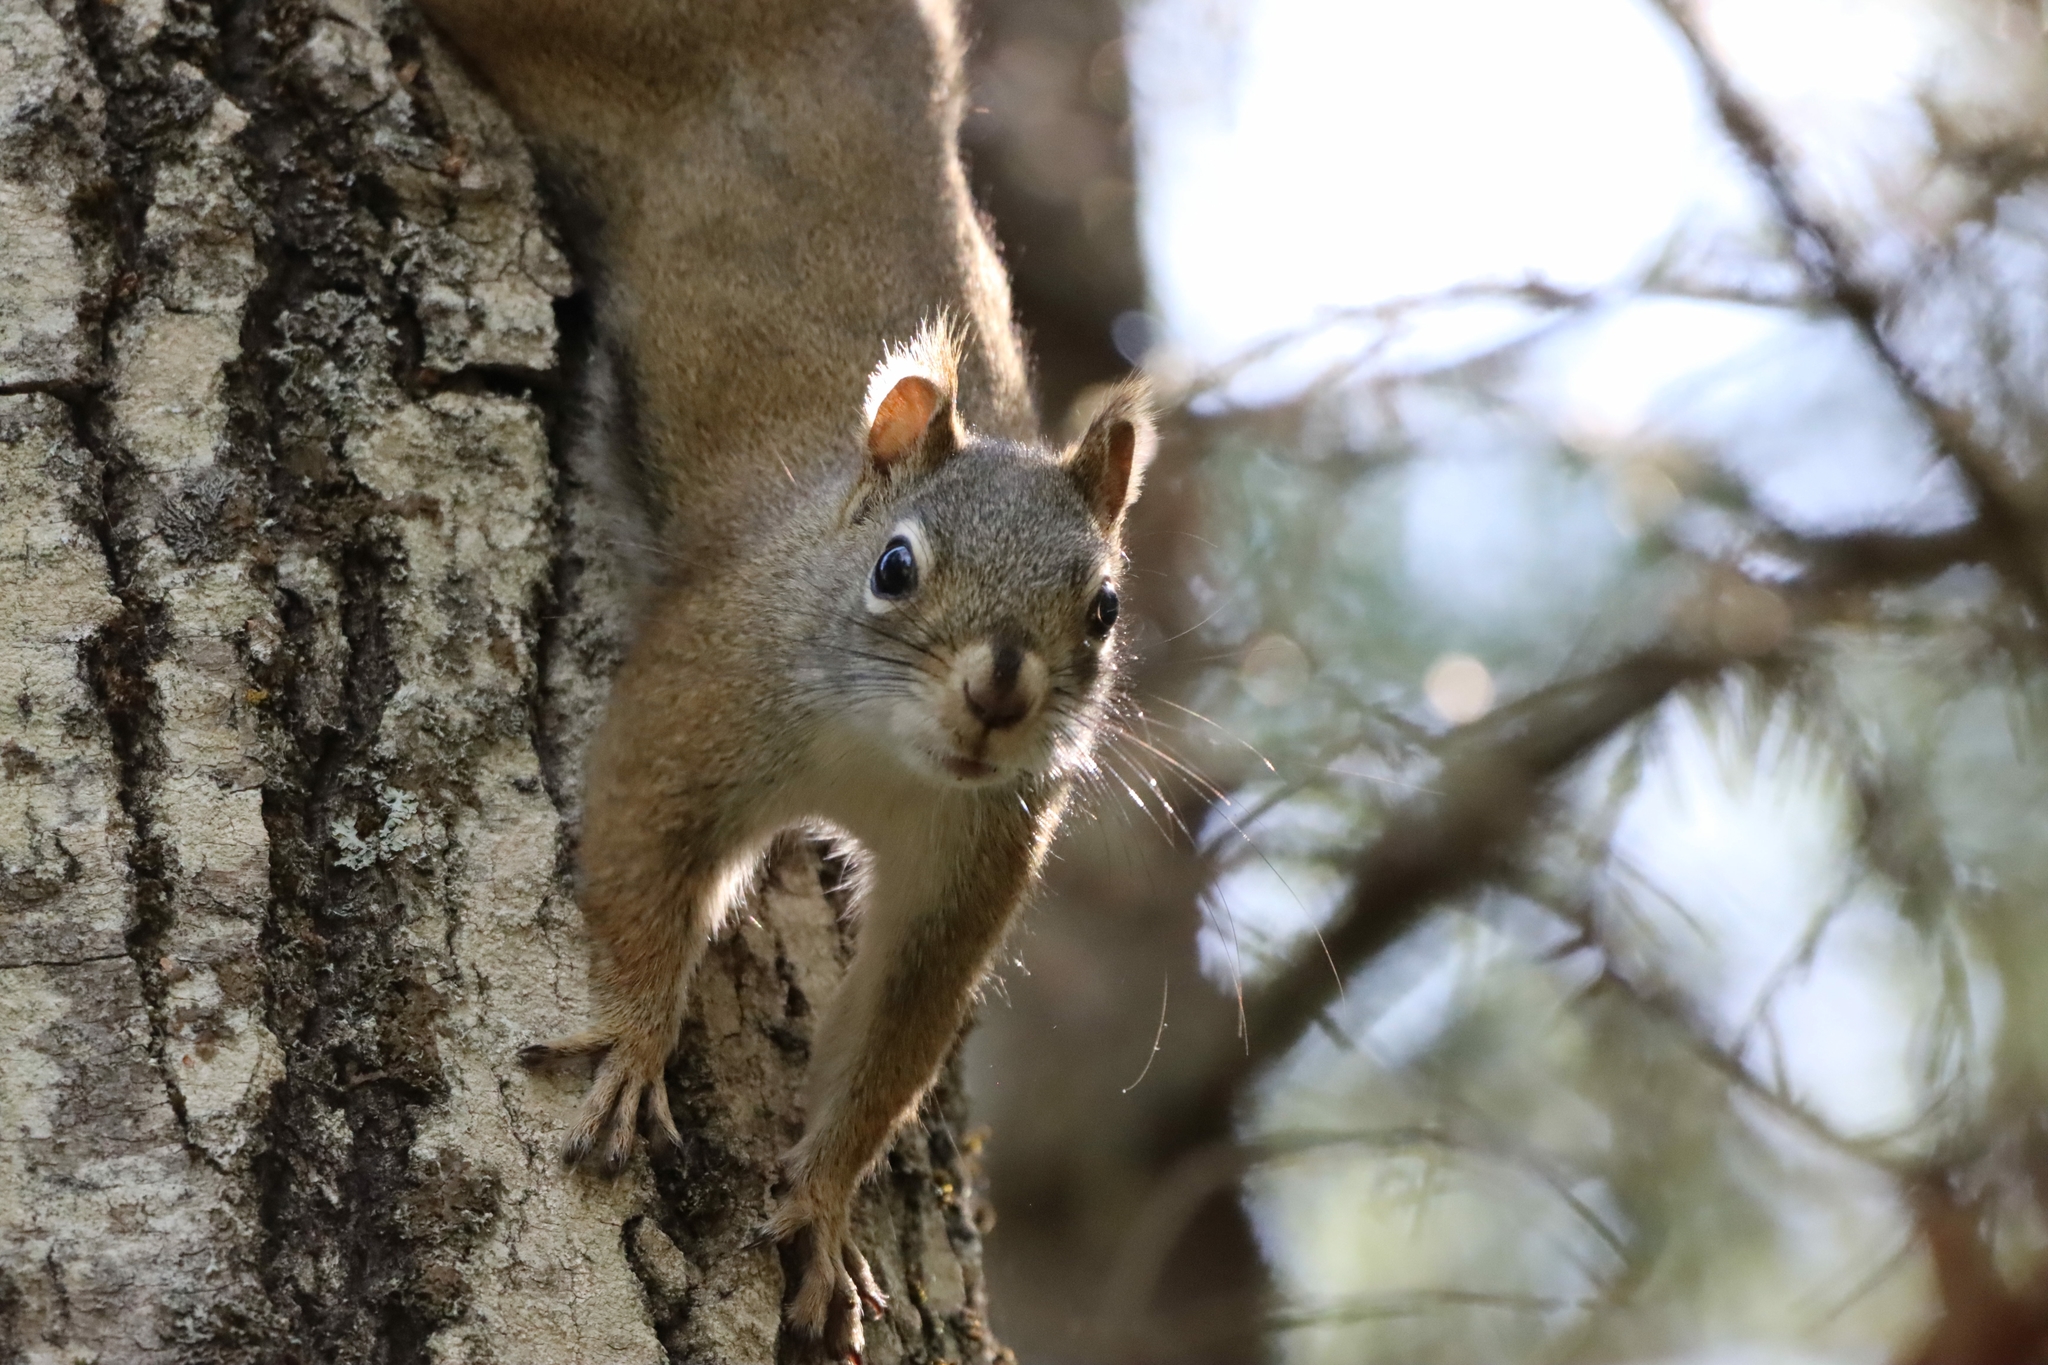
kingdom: Animalia
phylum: Chordata
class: Mammalia
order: Rodentia
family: Sciuridae
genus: Tamiasciurus
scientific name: Tamiasciurus hudsonicus
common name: Red squirrel
